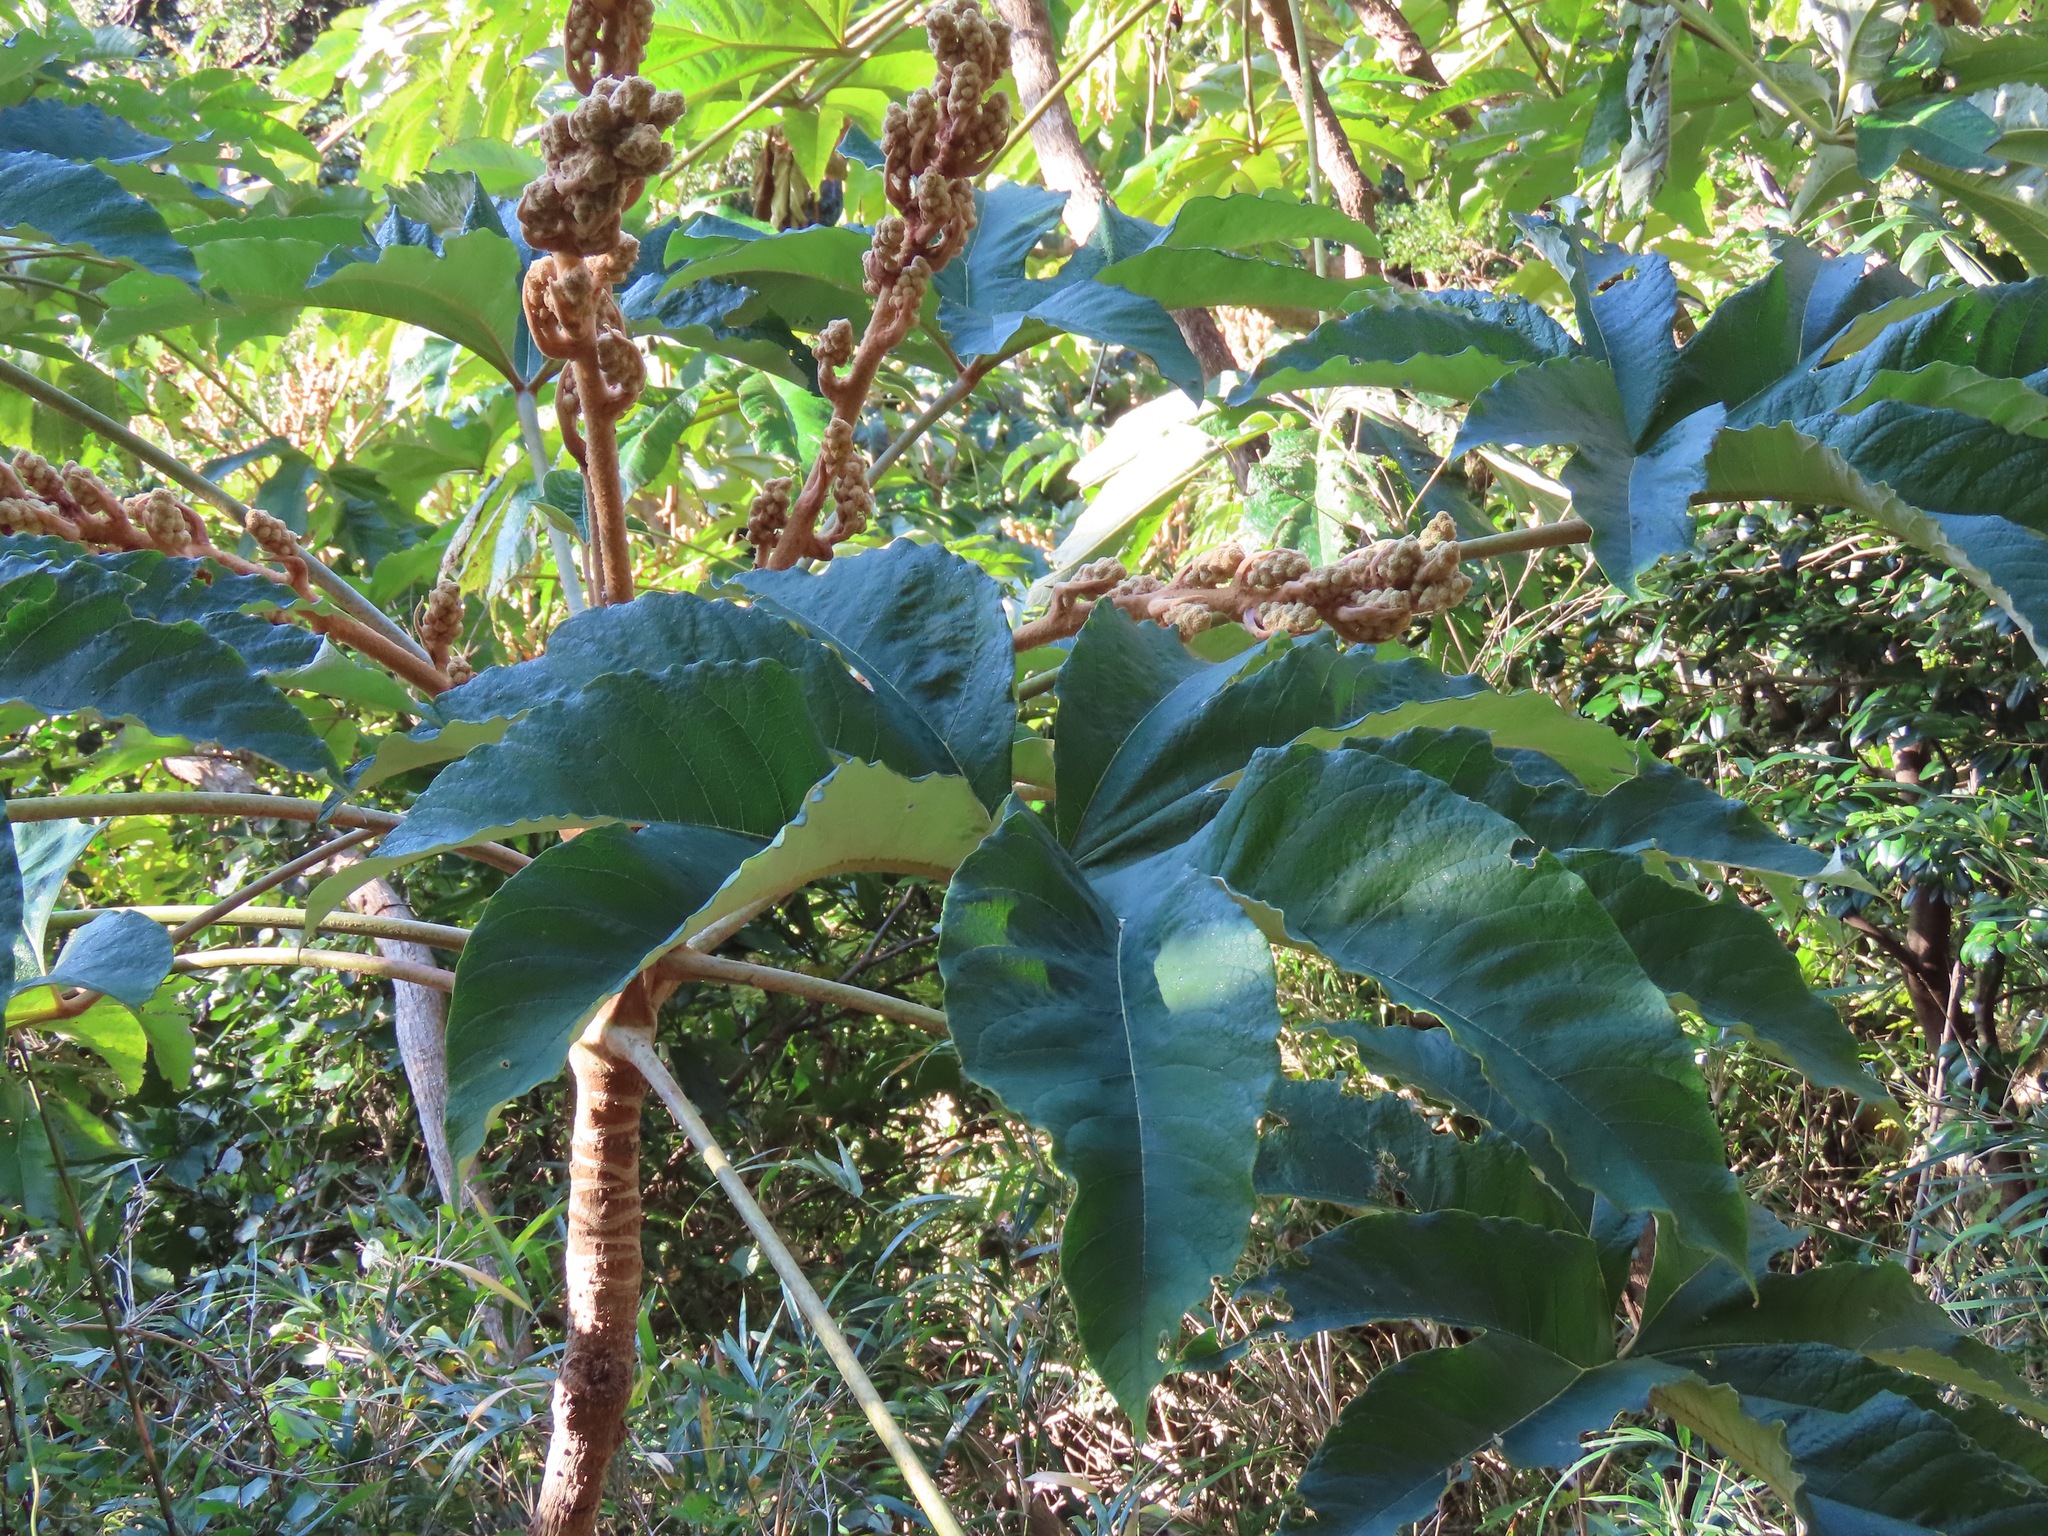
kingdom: Plantae
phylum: Tracheophyta
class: Magnoliopsida
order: Apiales
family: Araliaceae
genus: Tetrapanax
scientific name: Tetrapanax papyrifer
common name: Rice-paper plant
